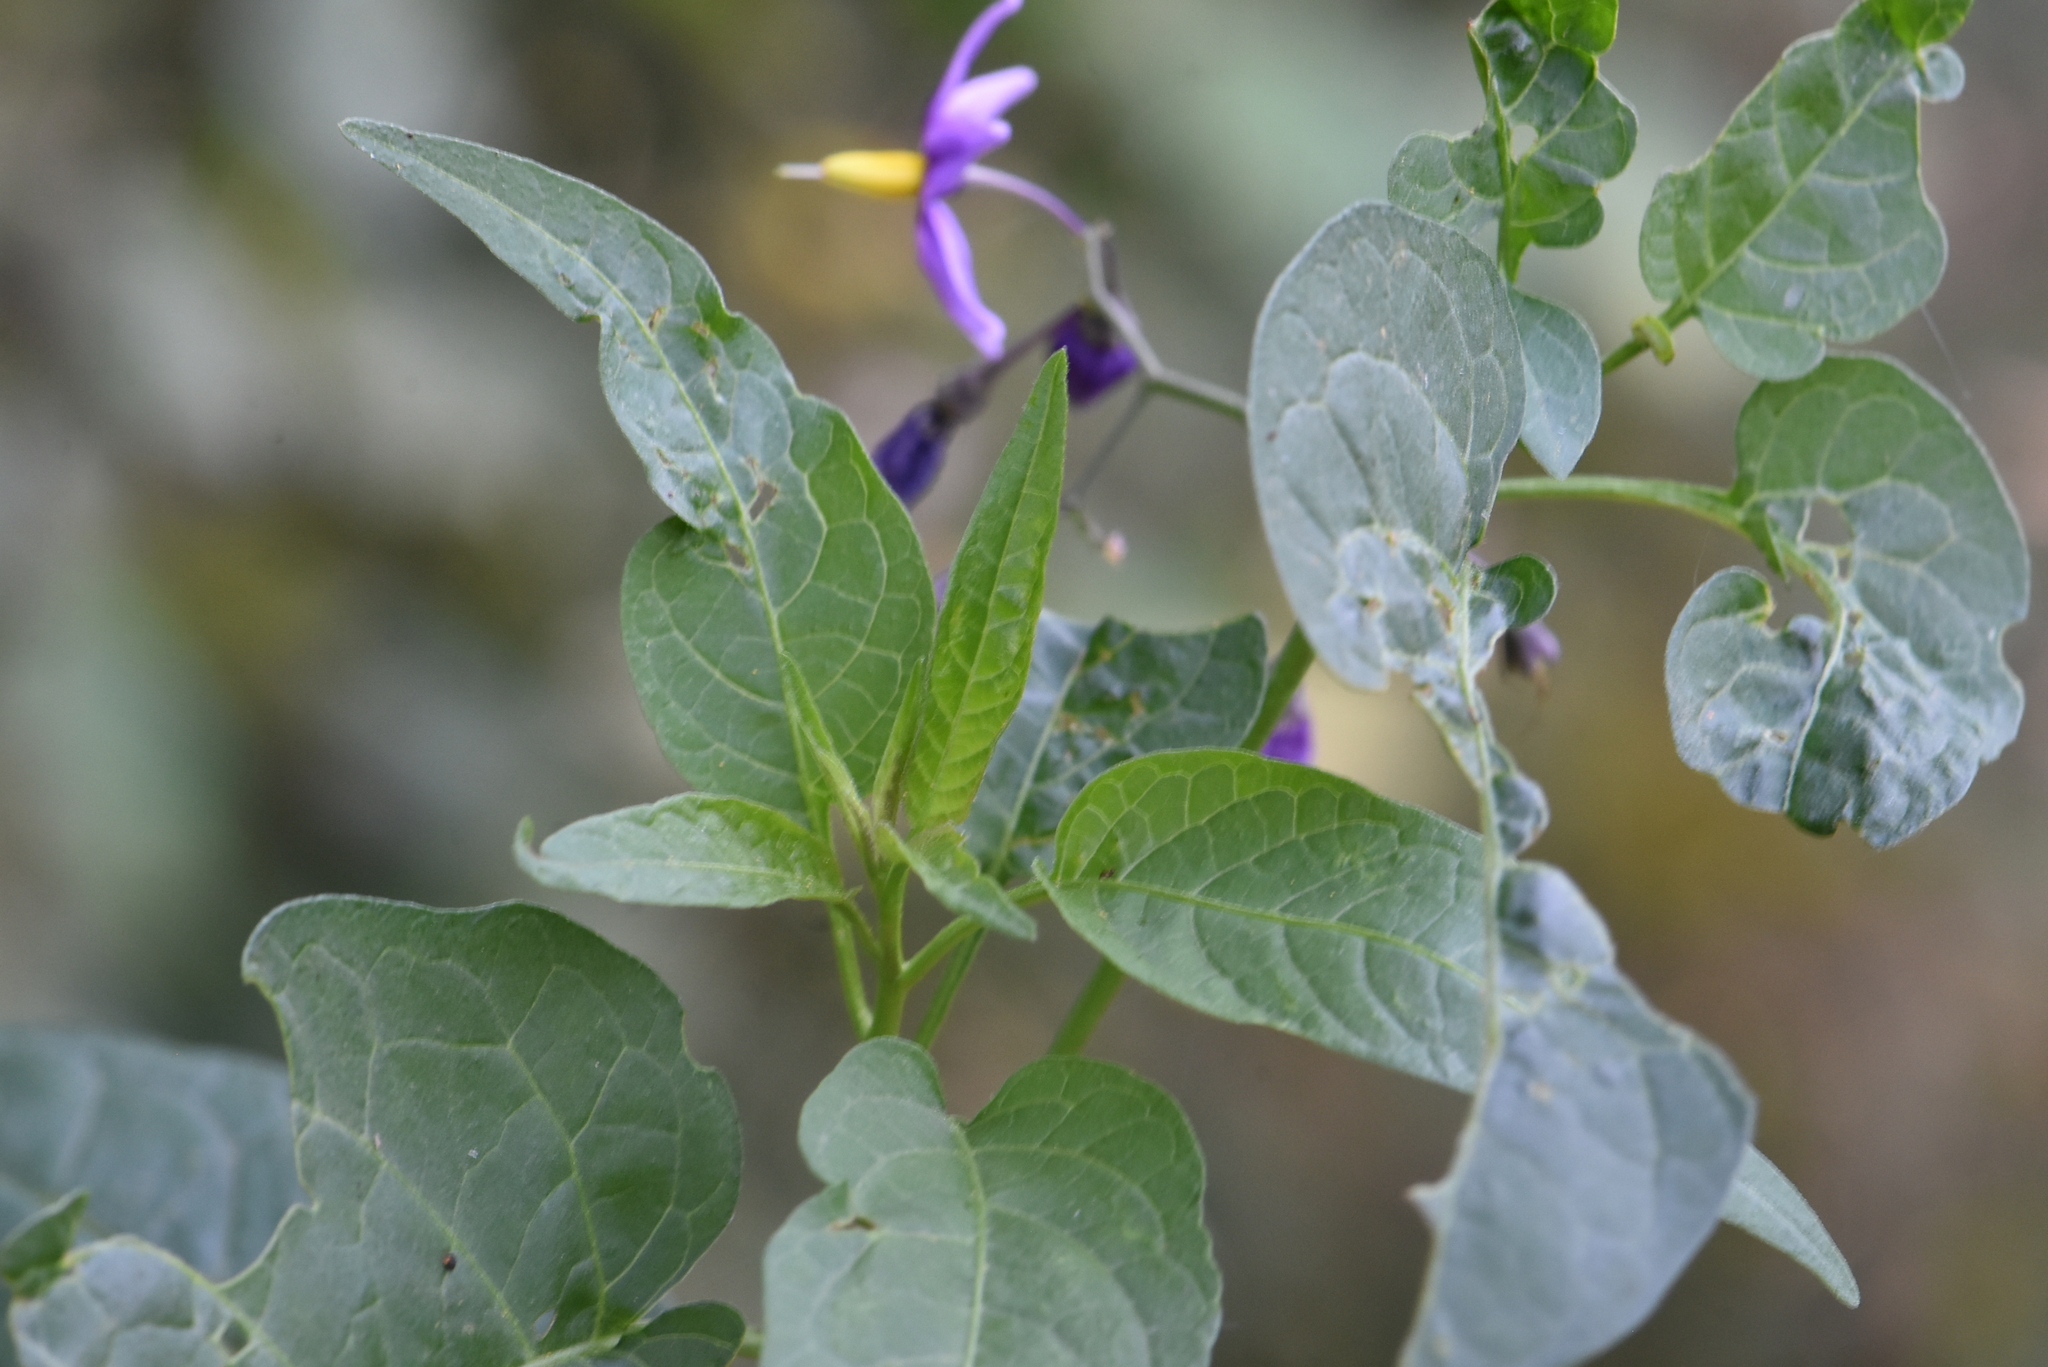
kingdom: Plantae
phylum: Tracheophyta
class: Magnoliopsida
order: Solanales
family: Solanaceae
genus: Solanum
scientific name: Solanum dulcamara
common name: Climbing nightshade
